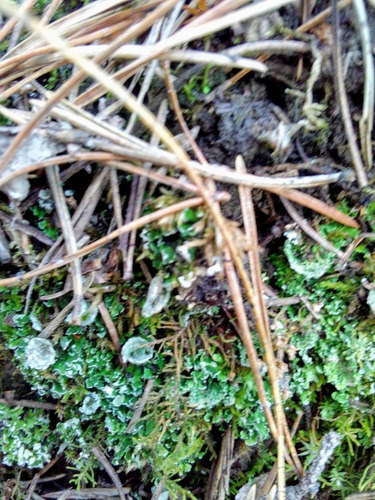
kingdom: Fungi
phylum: Ascomycota
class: Lecanoromycetes
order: Lecanorales
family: Cladoniaceae
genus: Cladonia
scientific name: Cladonia
